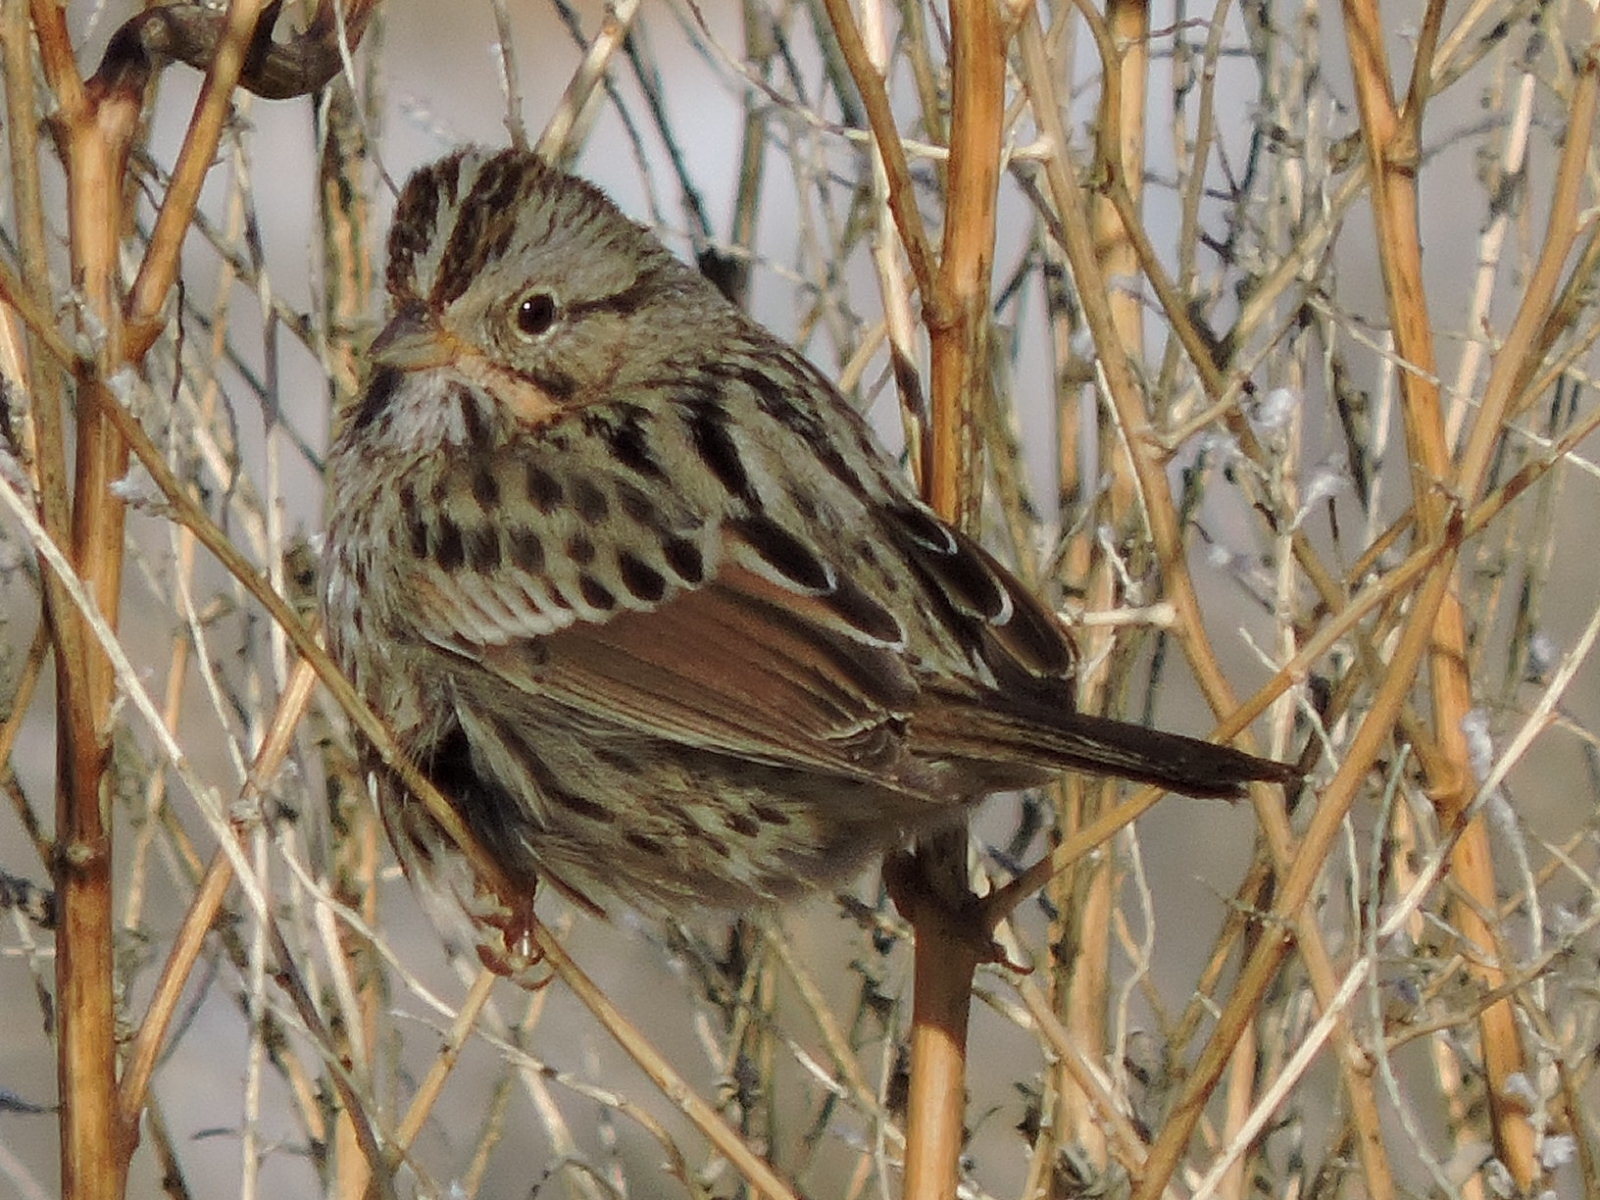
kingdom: Animalia
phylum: Chordata
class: Aves
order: Passeriformes
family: Passerellidae
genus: Melospiza
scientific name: Melospiza lincolnii
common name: Lincoln's sparrow
